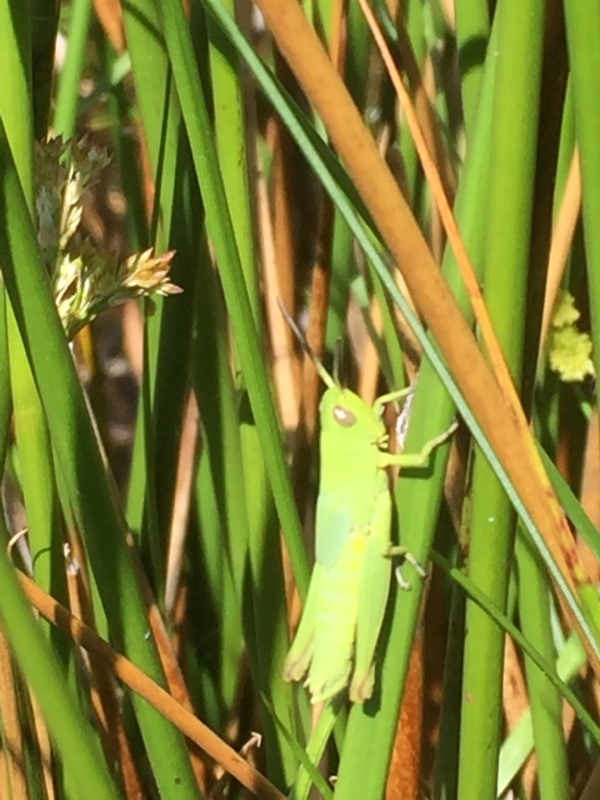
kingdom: Animalia
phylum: Arthropoda
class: Insecta
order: Orthoptera
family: Acrididae
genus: Chorthippus
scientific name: Chorthippus jucundus
